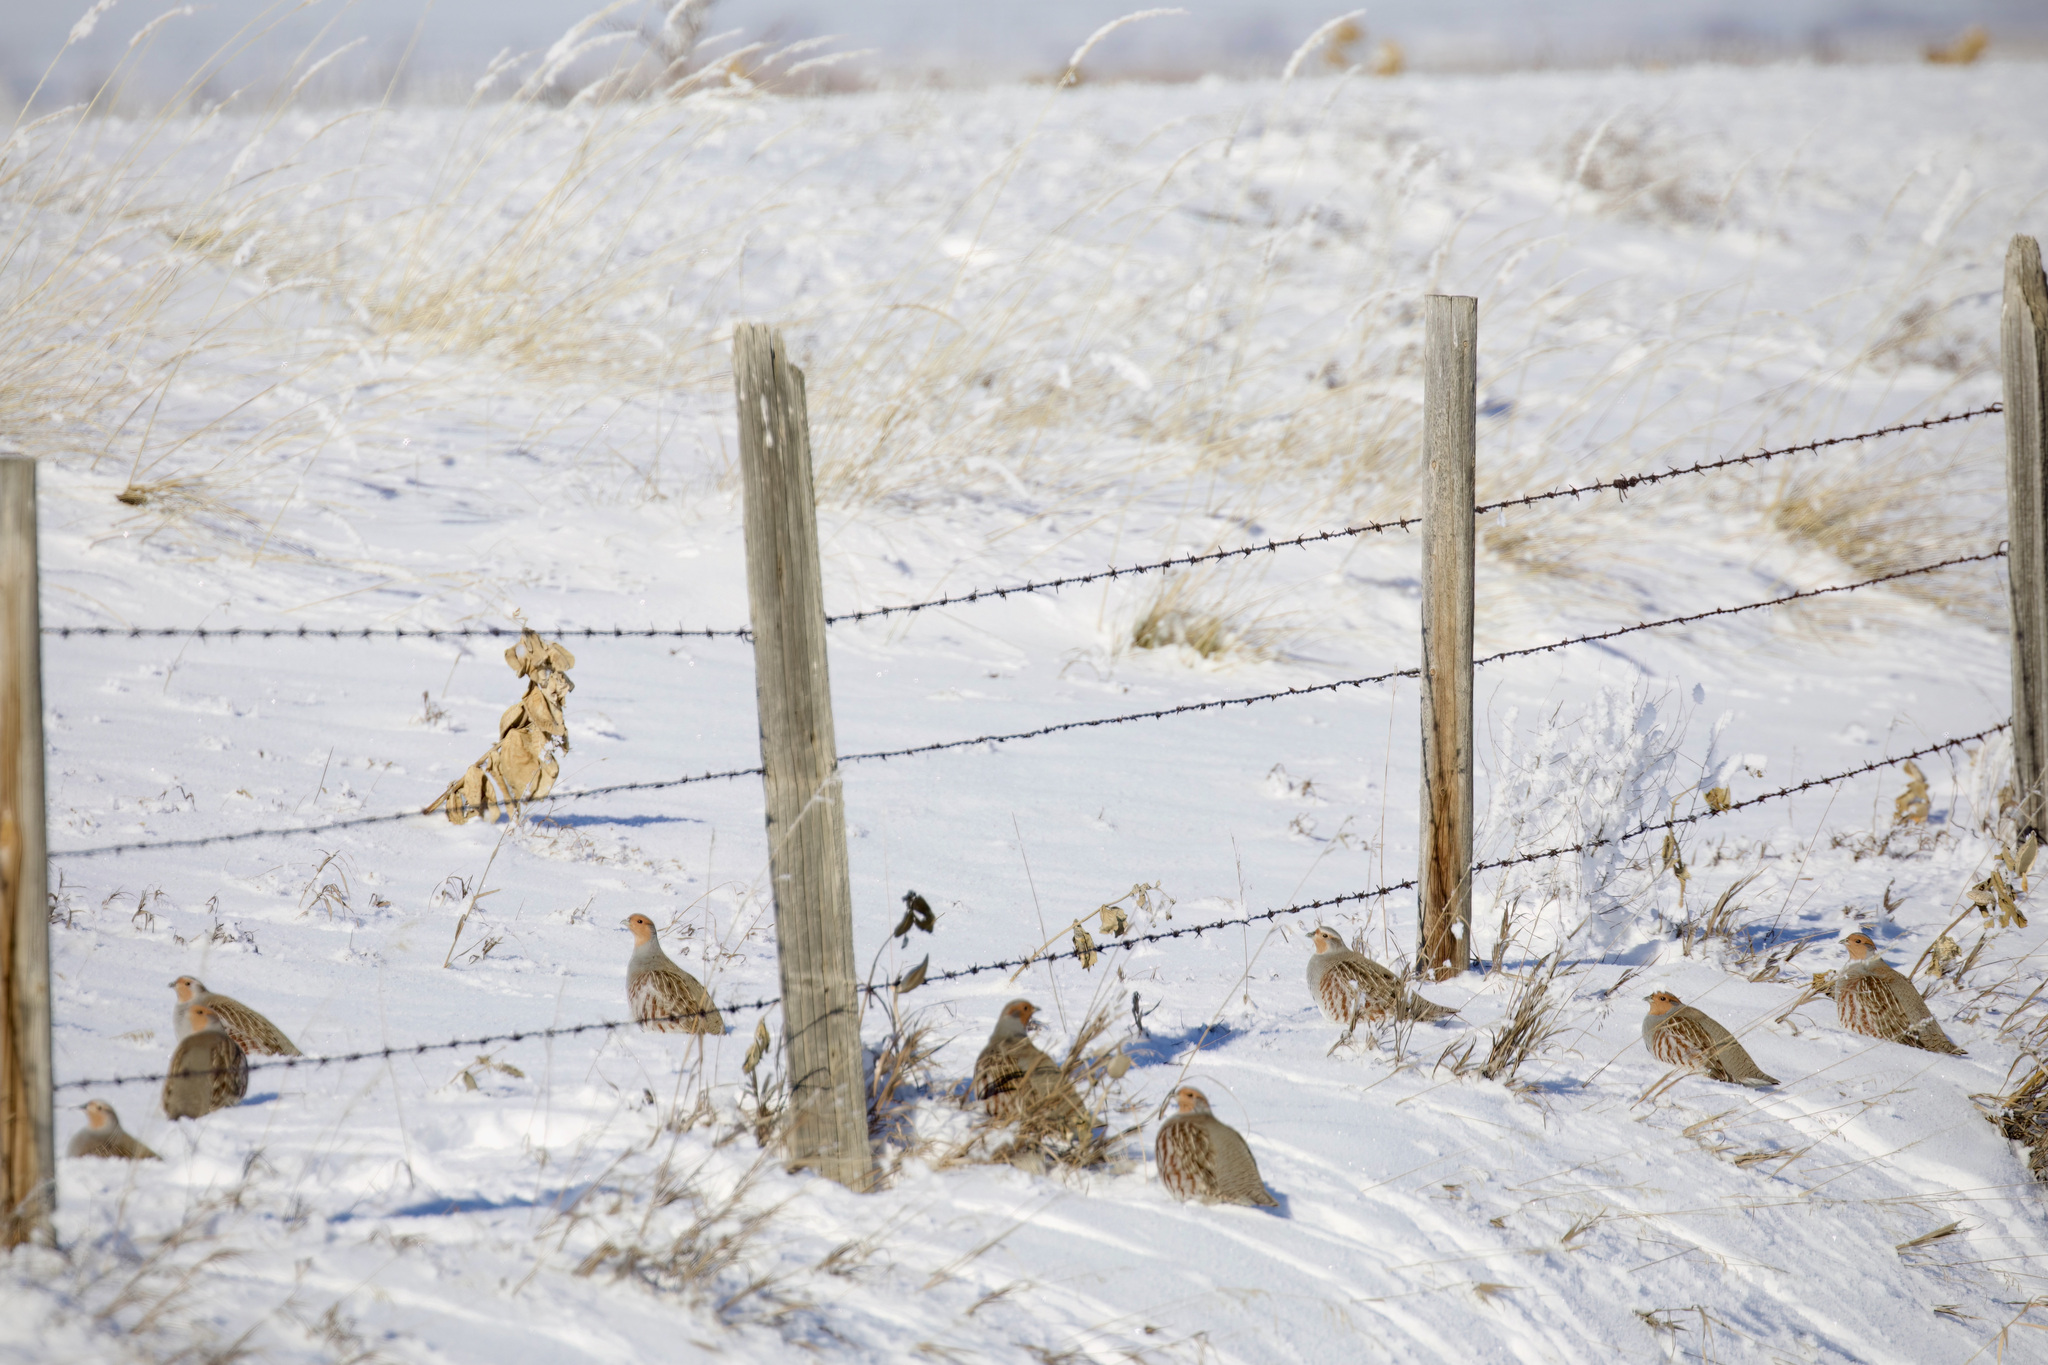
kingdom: Animalia
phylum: Chordata
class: Aves
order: Galliformes
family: Phasianidae
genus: Perdix
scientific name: Perdix perdix
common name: Grey partridge
